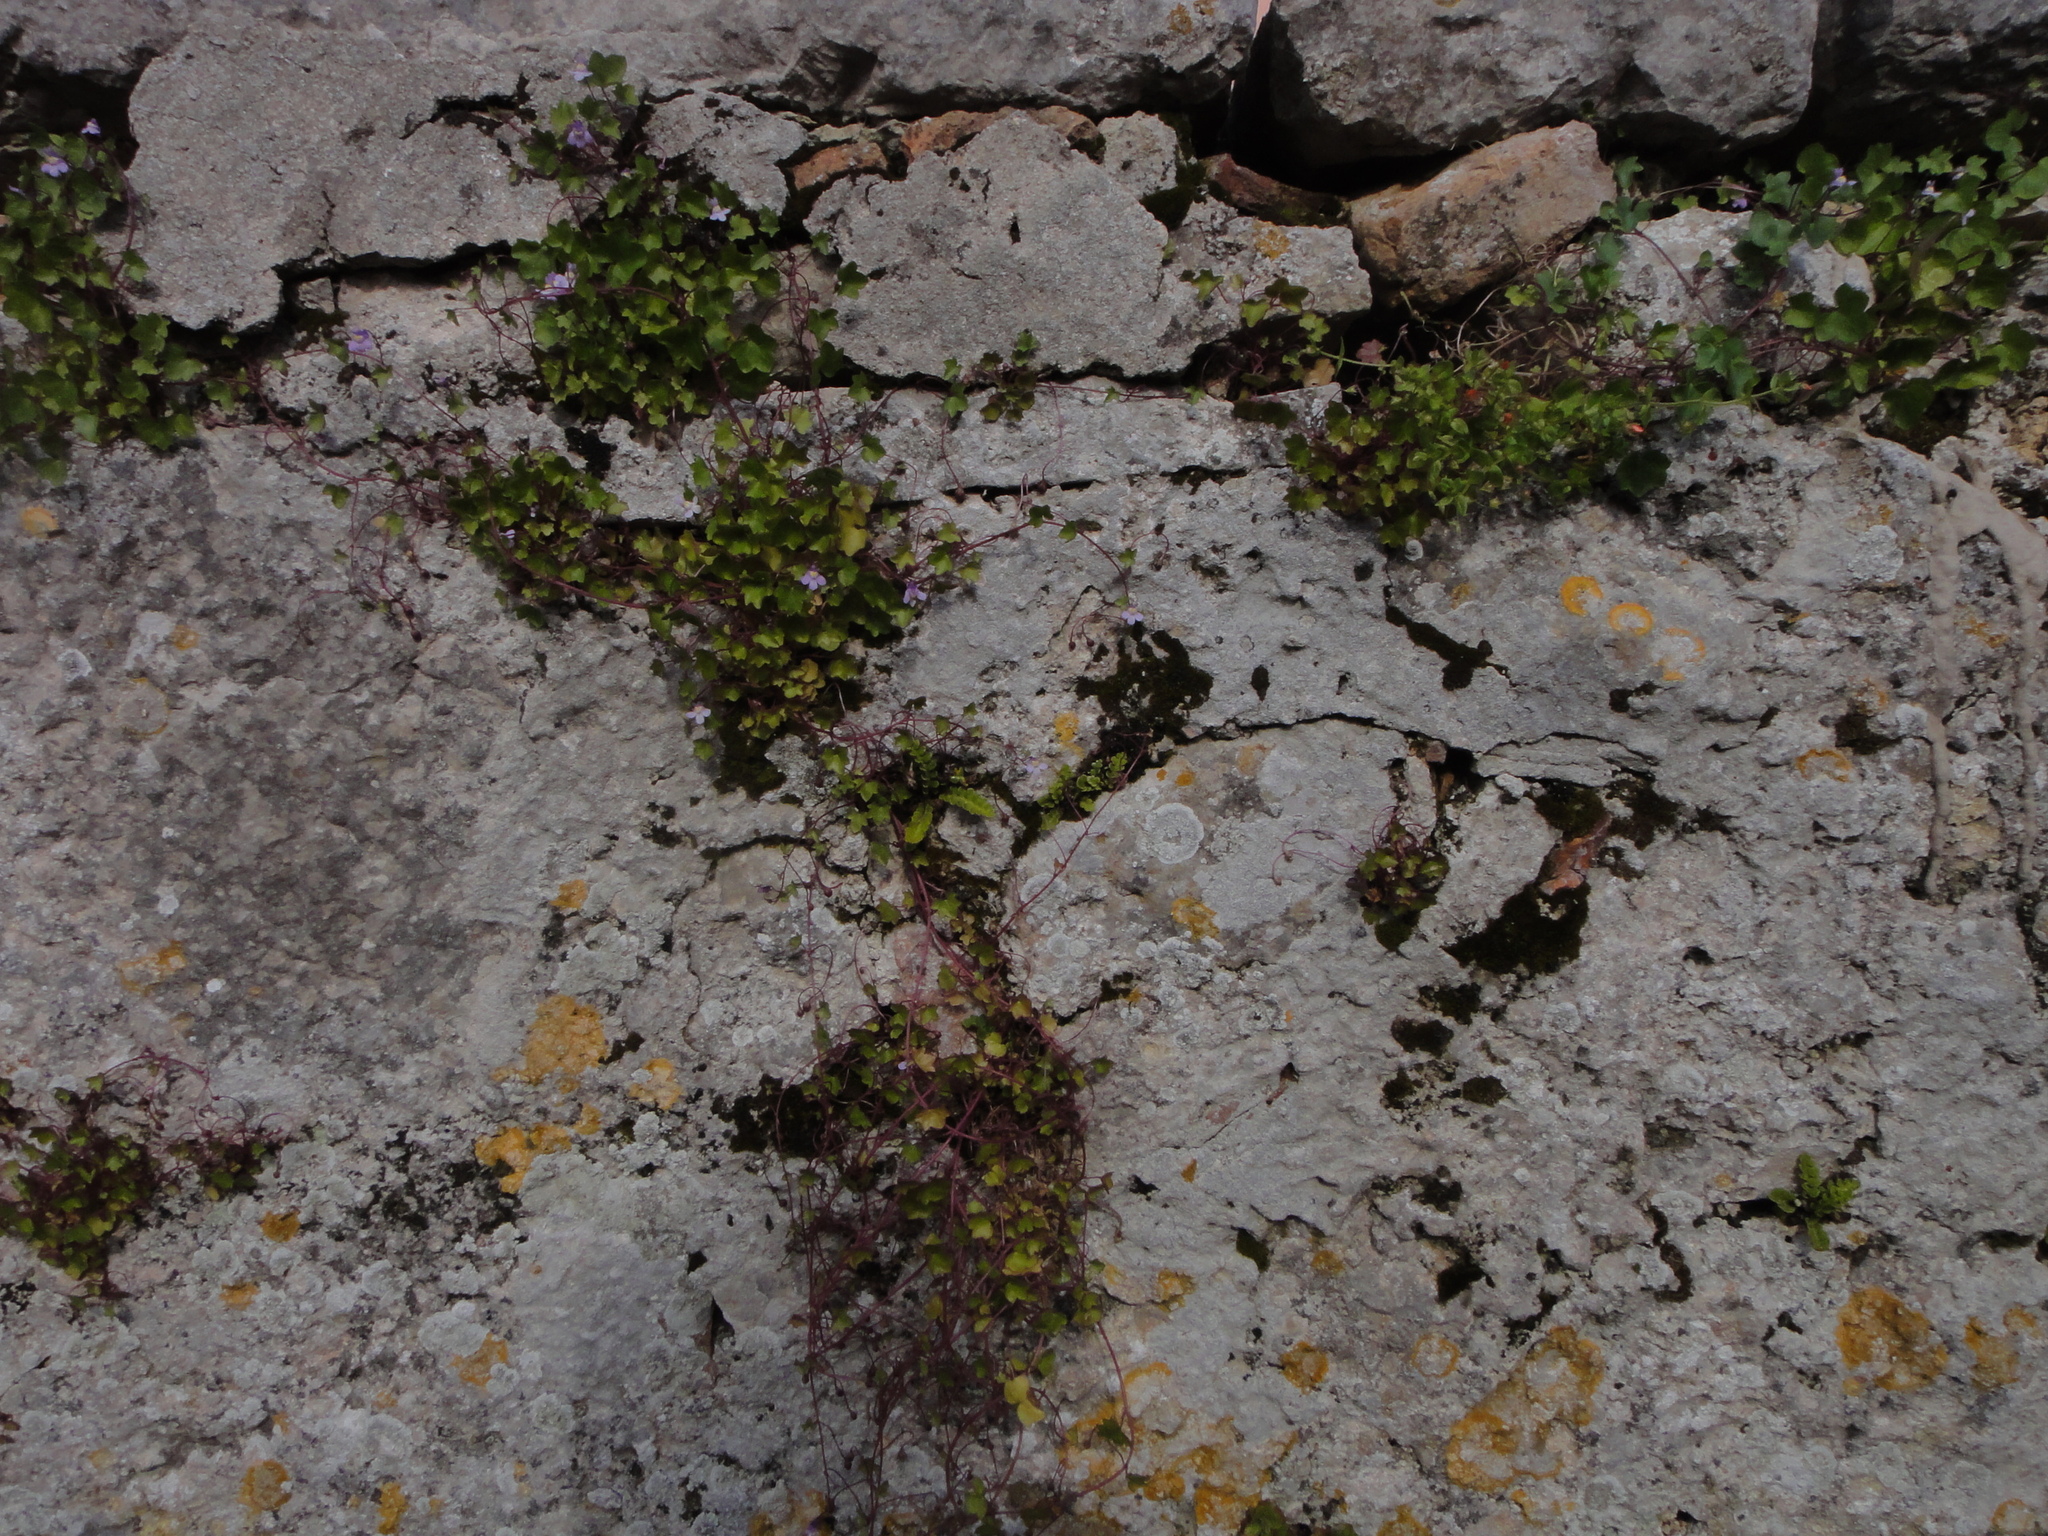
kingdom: Plantae
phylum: Tracheophyta
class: Magnoliopsida
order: Lamiales
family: Plantaginaceae
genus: Cymbalaria
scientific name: Cymbalaria muralis
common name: Ivy-leaved toadflax
